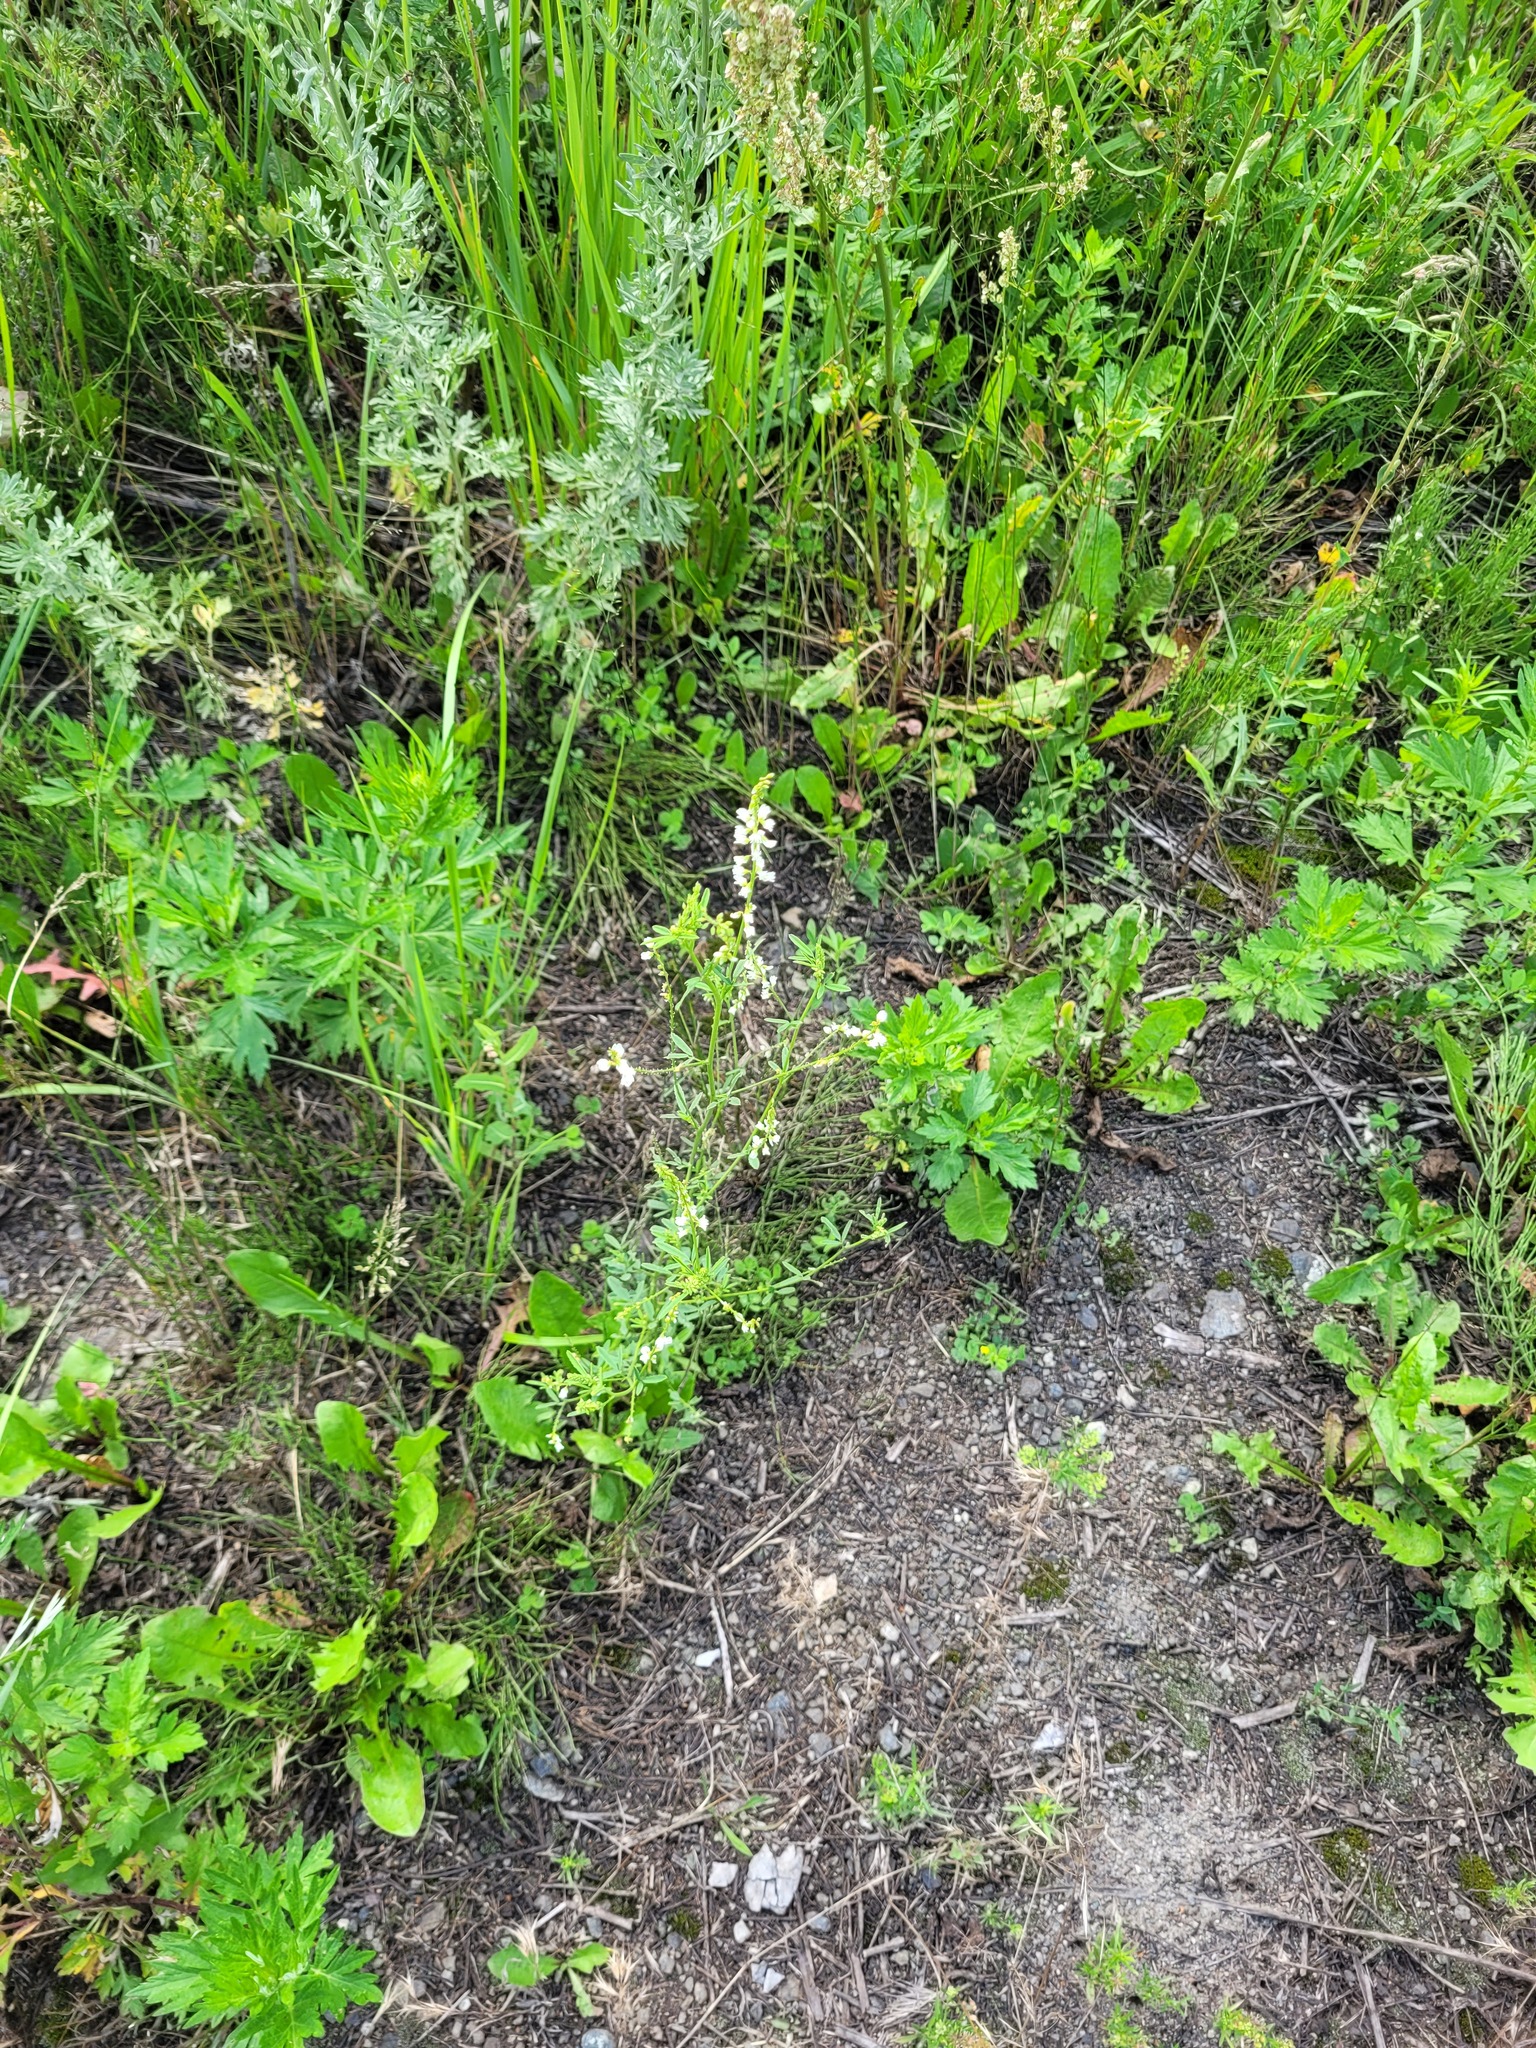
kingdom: Plantae
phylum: Tracheophyta
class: Magnoliopsida
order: Fabales
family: Fabaceae
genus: Melilotus
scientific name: Melilotus albus
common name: White melilot
